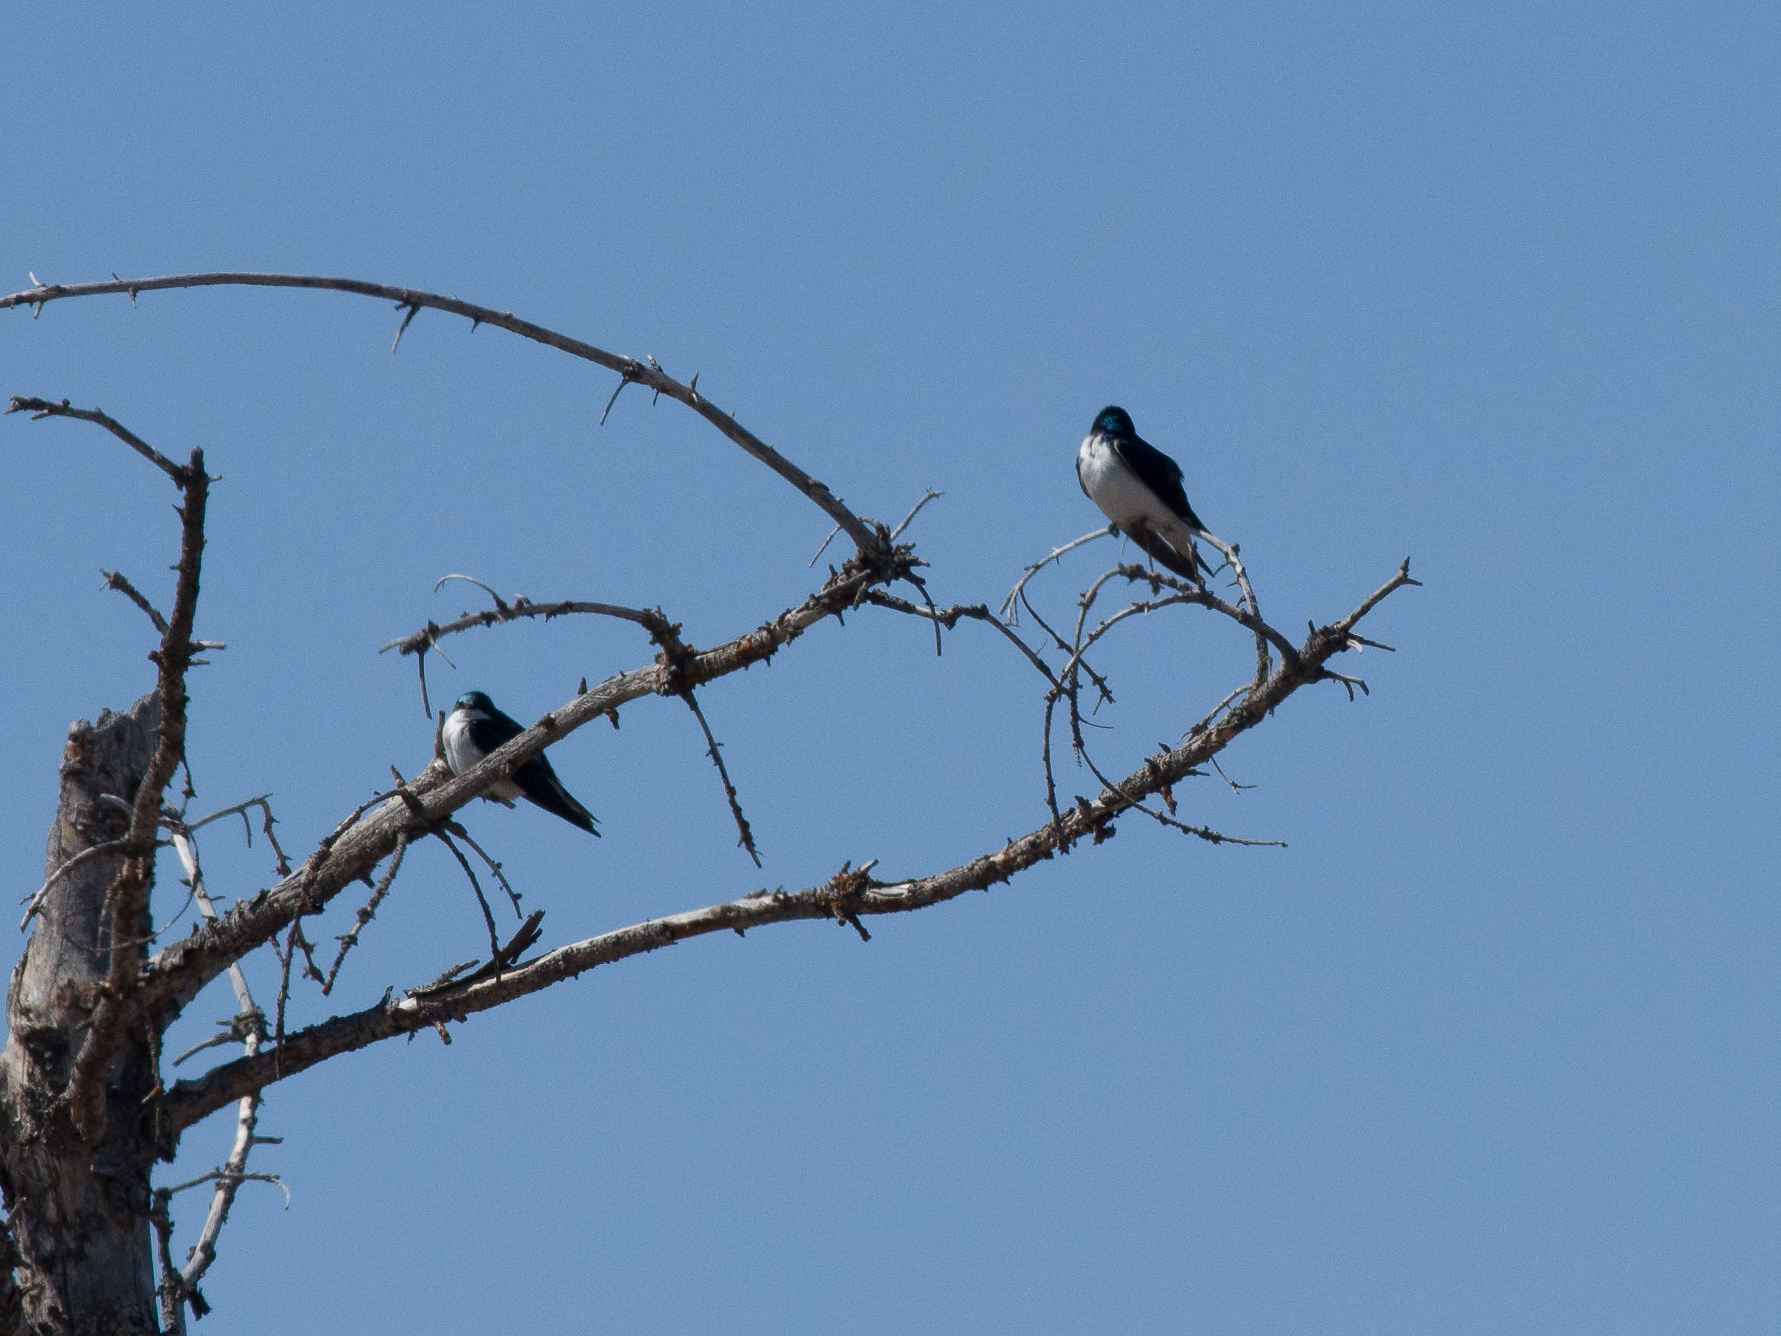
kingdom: Animalia
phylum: Chordata
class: Aves
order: Passeriformes
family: Hirundinidae
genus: Tachycineta
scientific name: Tachycineta bicolor
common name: Tree swallow
